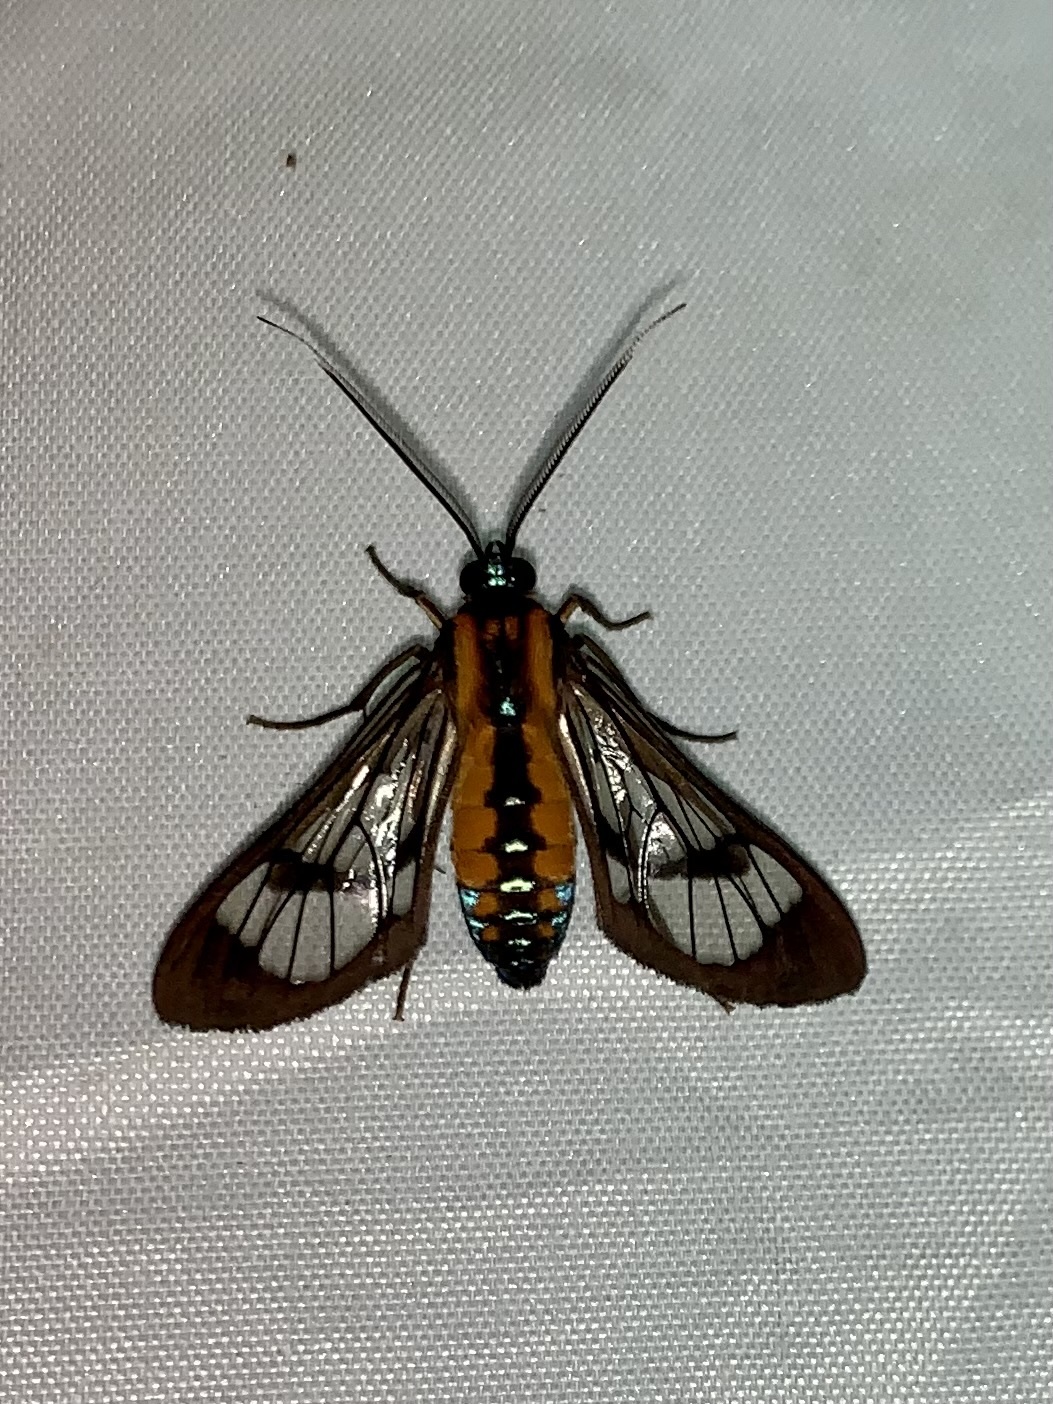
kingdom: Animalia
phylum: Arthropoda
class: Insecta
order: Lepidoptera
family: Erebidae
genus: Cosmosoma
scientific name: Cosmosoma garleppi
